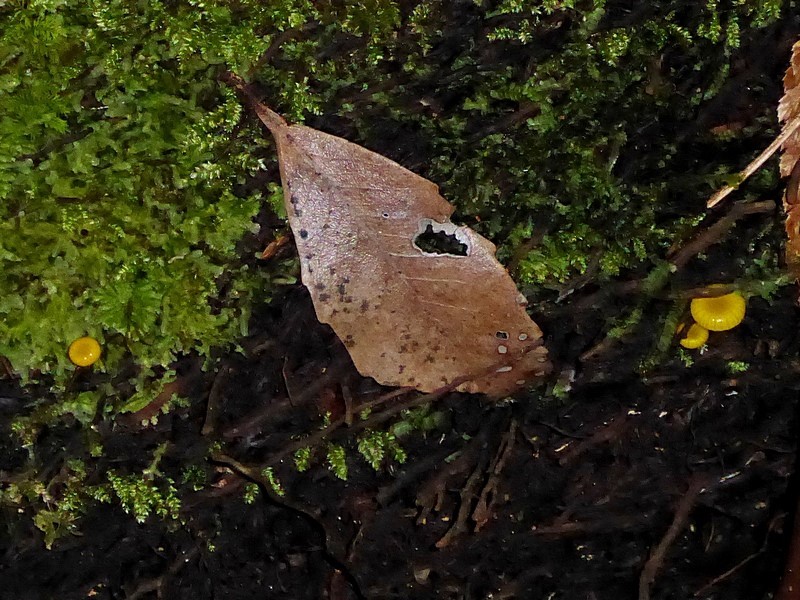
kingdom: Fungi
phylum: Basidiomycota
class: Agaricomycetes
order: Agaricales
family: Hygrophoraceae
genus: Gloioxanthomyces
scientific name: Gloioxanthomyces
